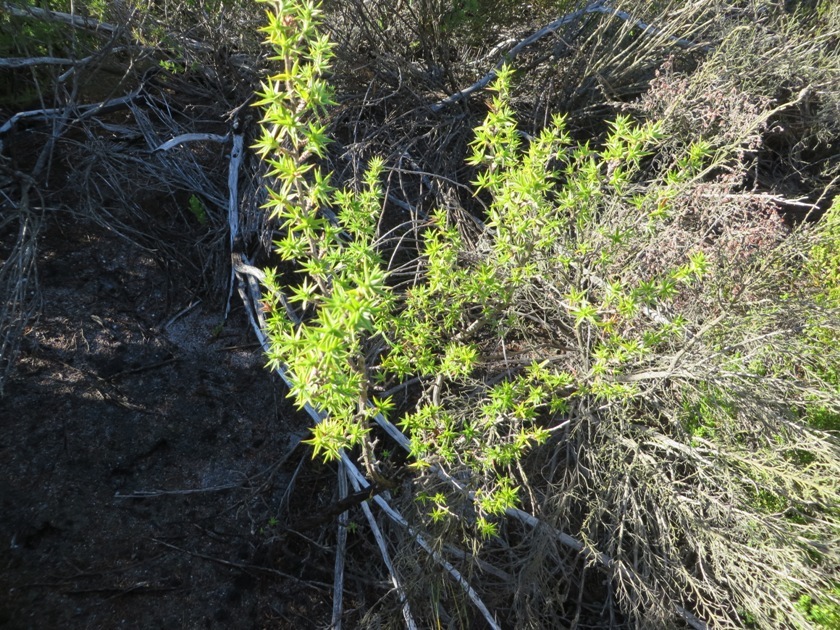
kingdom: Plantae
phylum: Tracheophyta
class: Magnoliopsida
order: Rosales
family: Rosaceae
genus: Cliffortia
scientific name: Cliffortia ruscifolia
